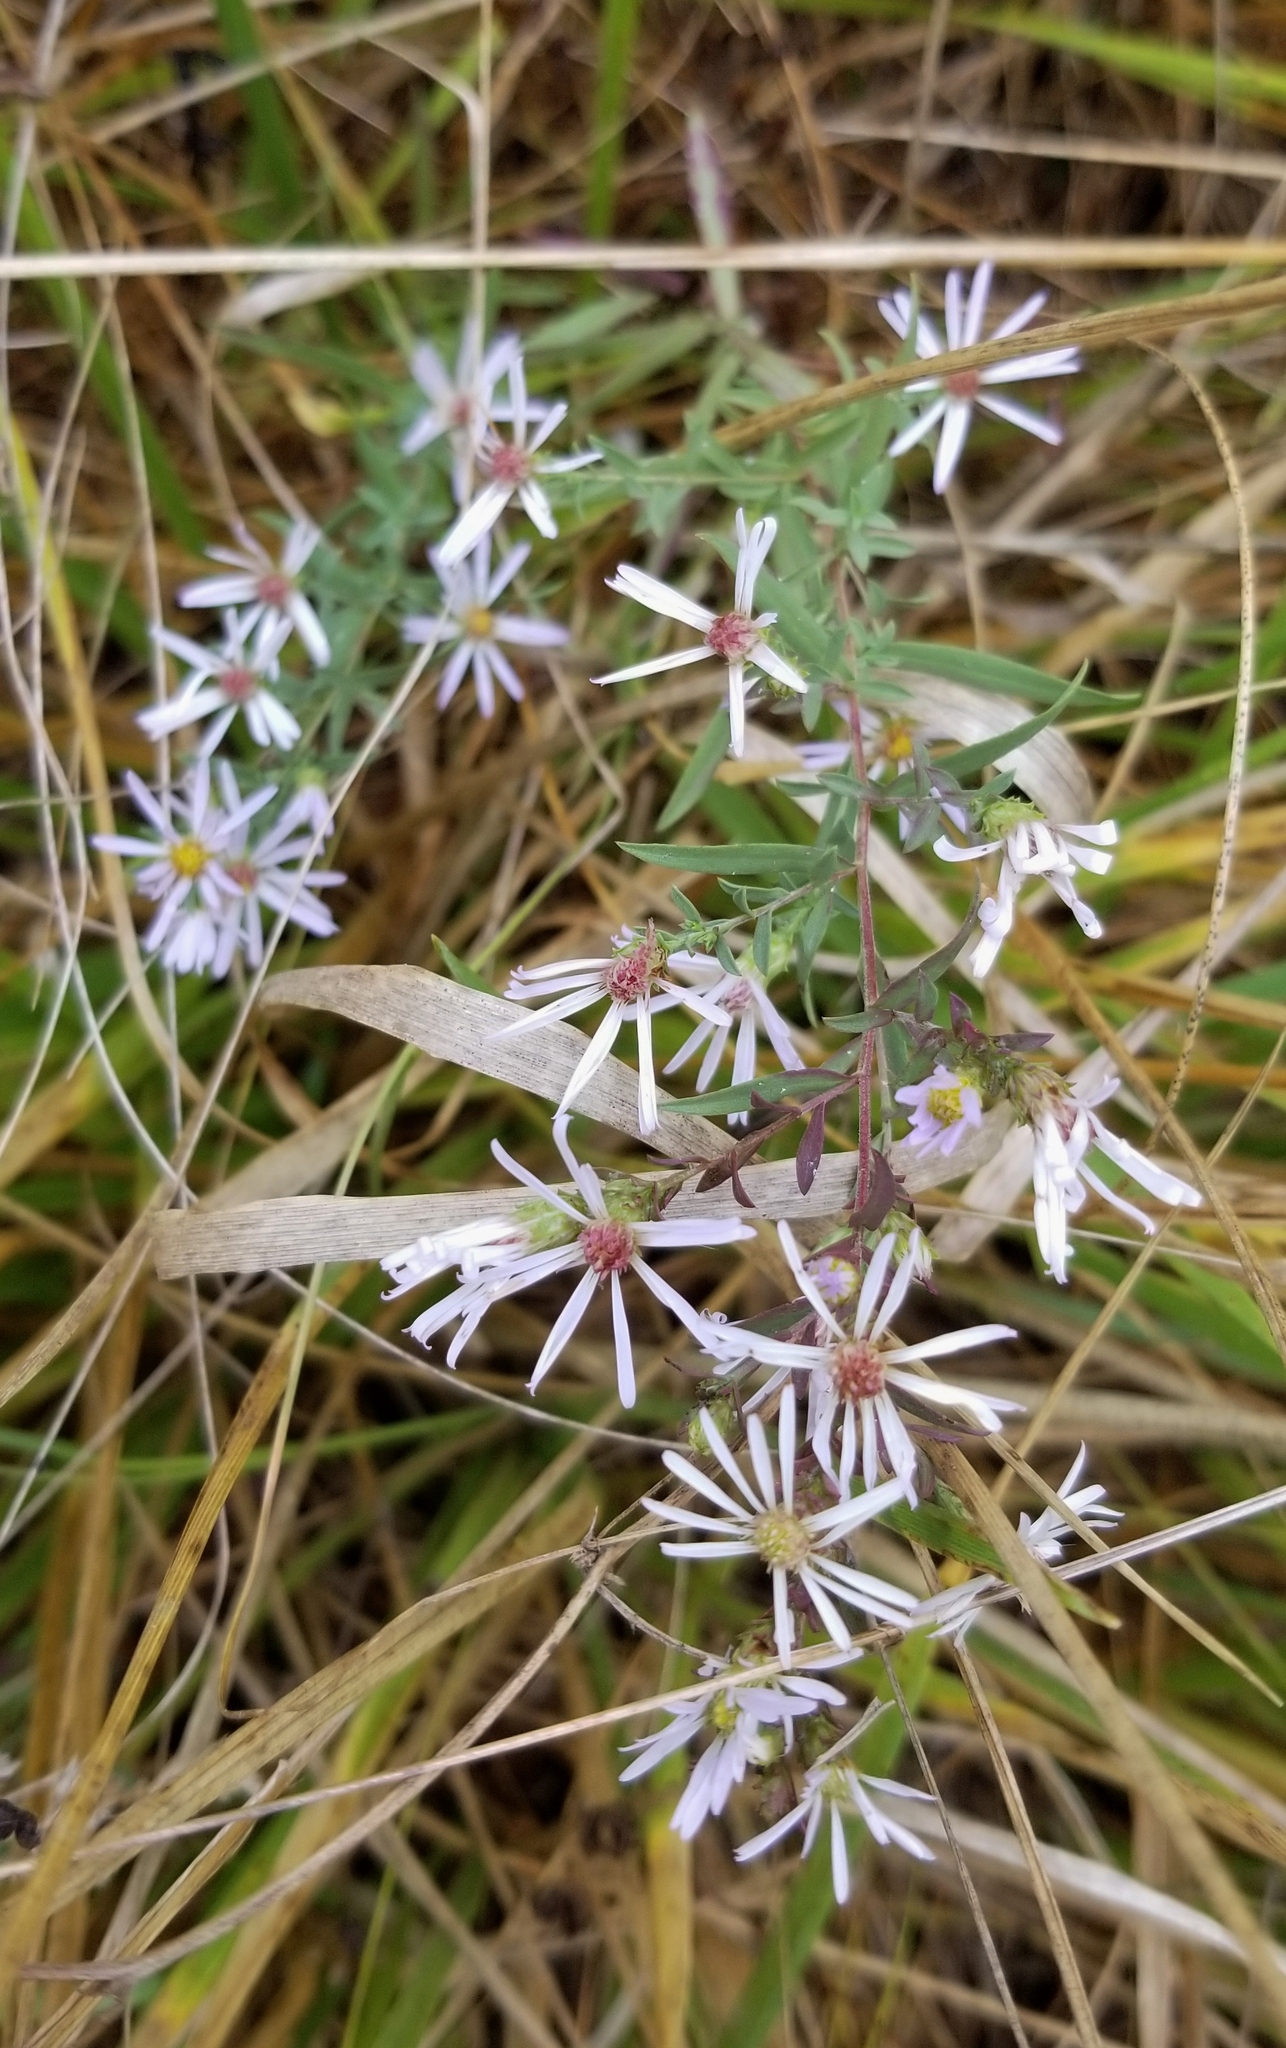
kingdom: Plantae
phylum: Tracheophyta
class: Magnoliopsida
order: Asterales
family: Asteraceae
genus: Symphyotrichum
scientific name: Symphyotrichum hallii
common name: Hall's aster
